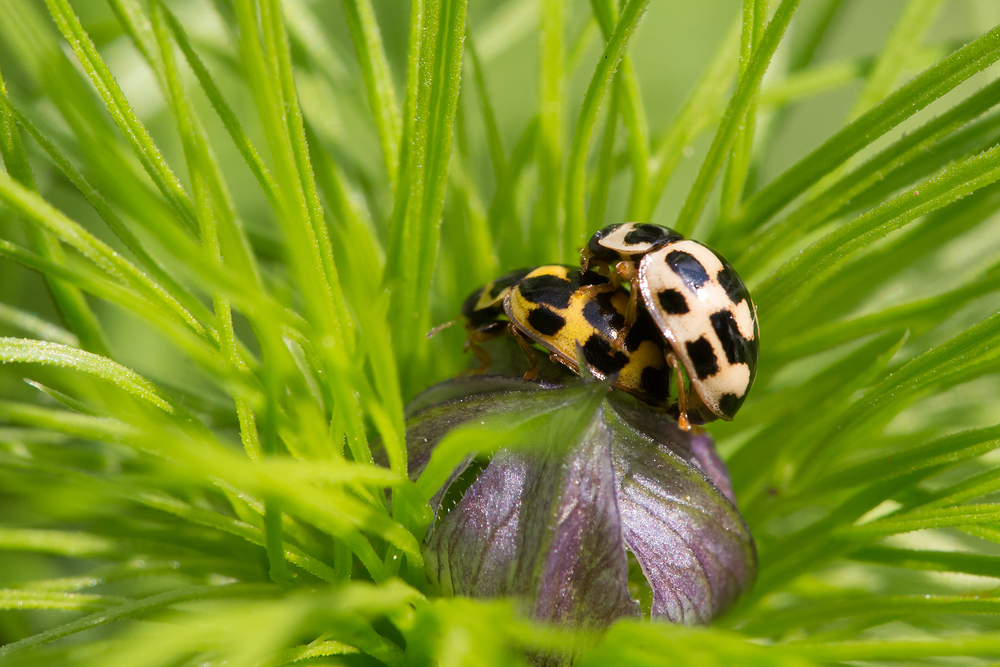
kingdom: Animalia
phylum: Arthropoda
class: Insecta
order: Coleoptera
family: Coccinellidae
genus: Propylaea
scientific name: Propylaea quatuordecimpunctata
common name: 14-spotted ladybird beetle
